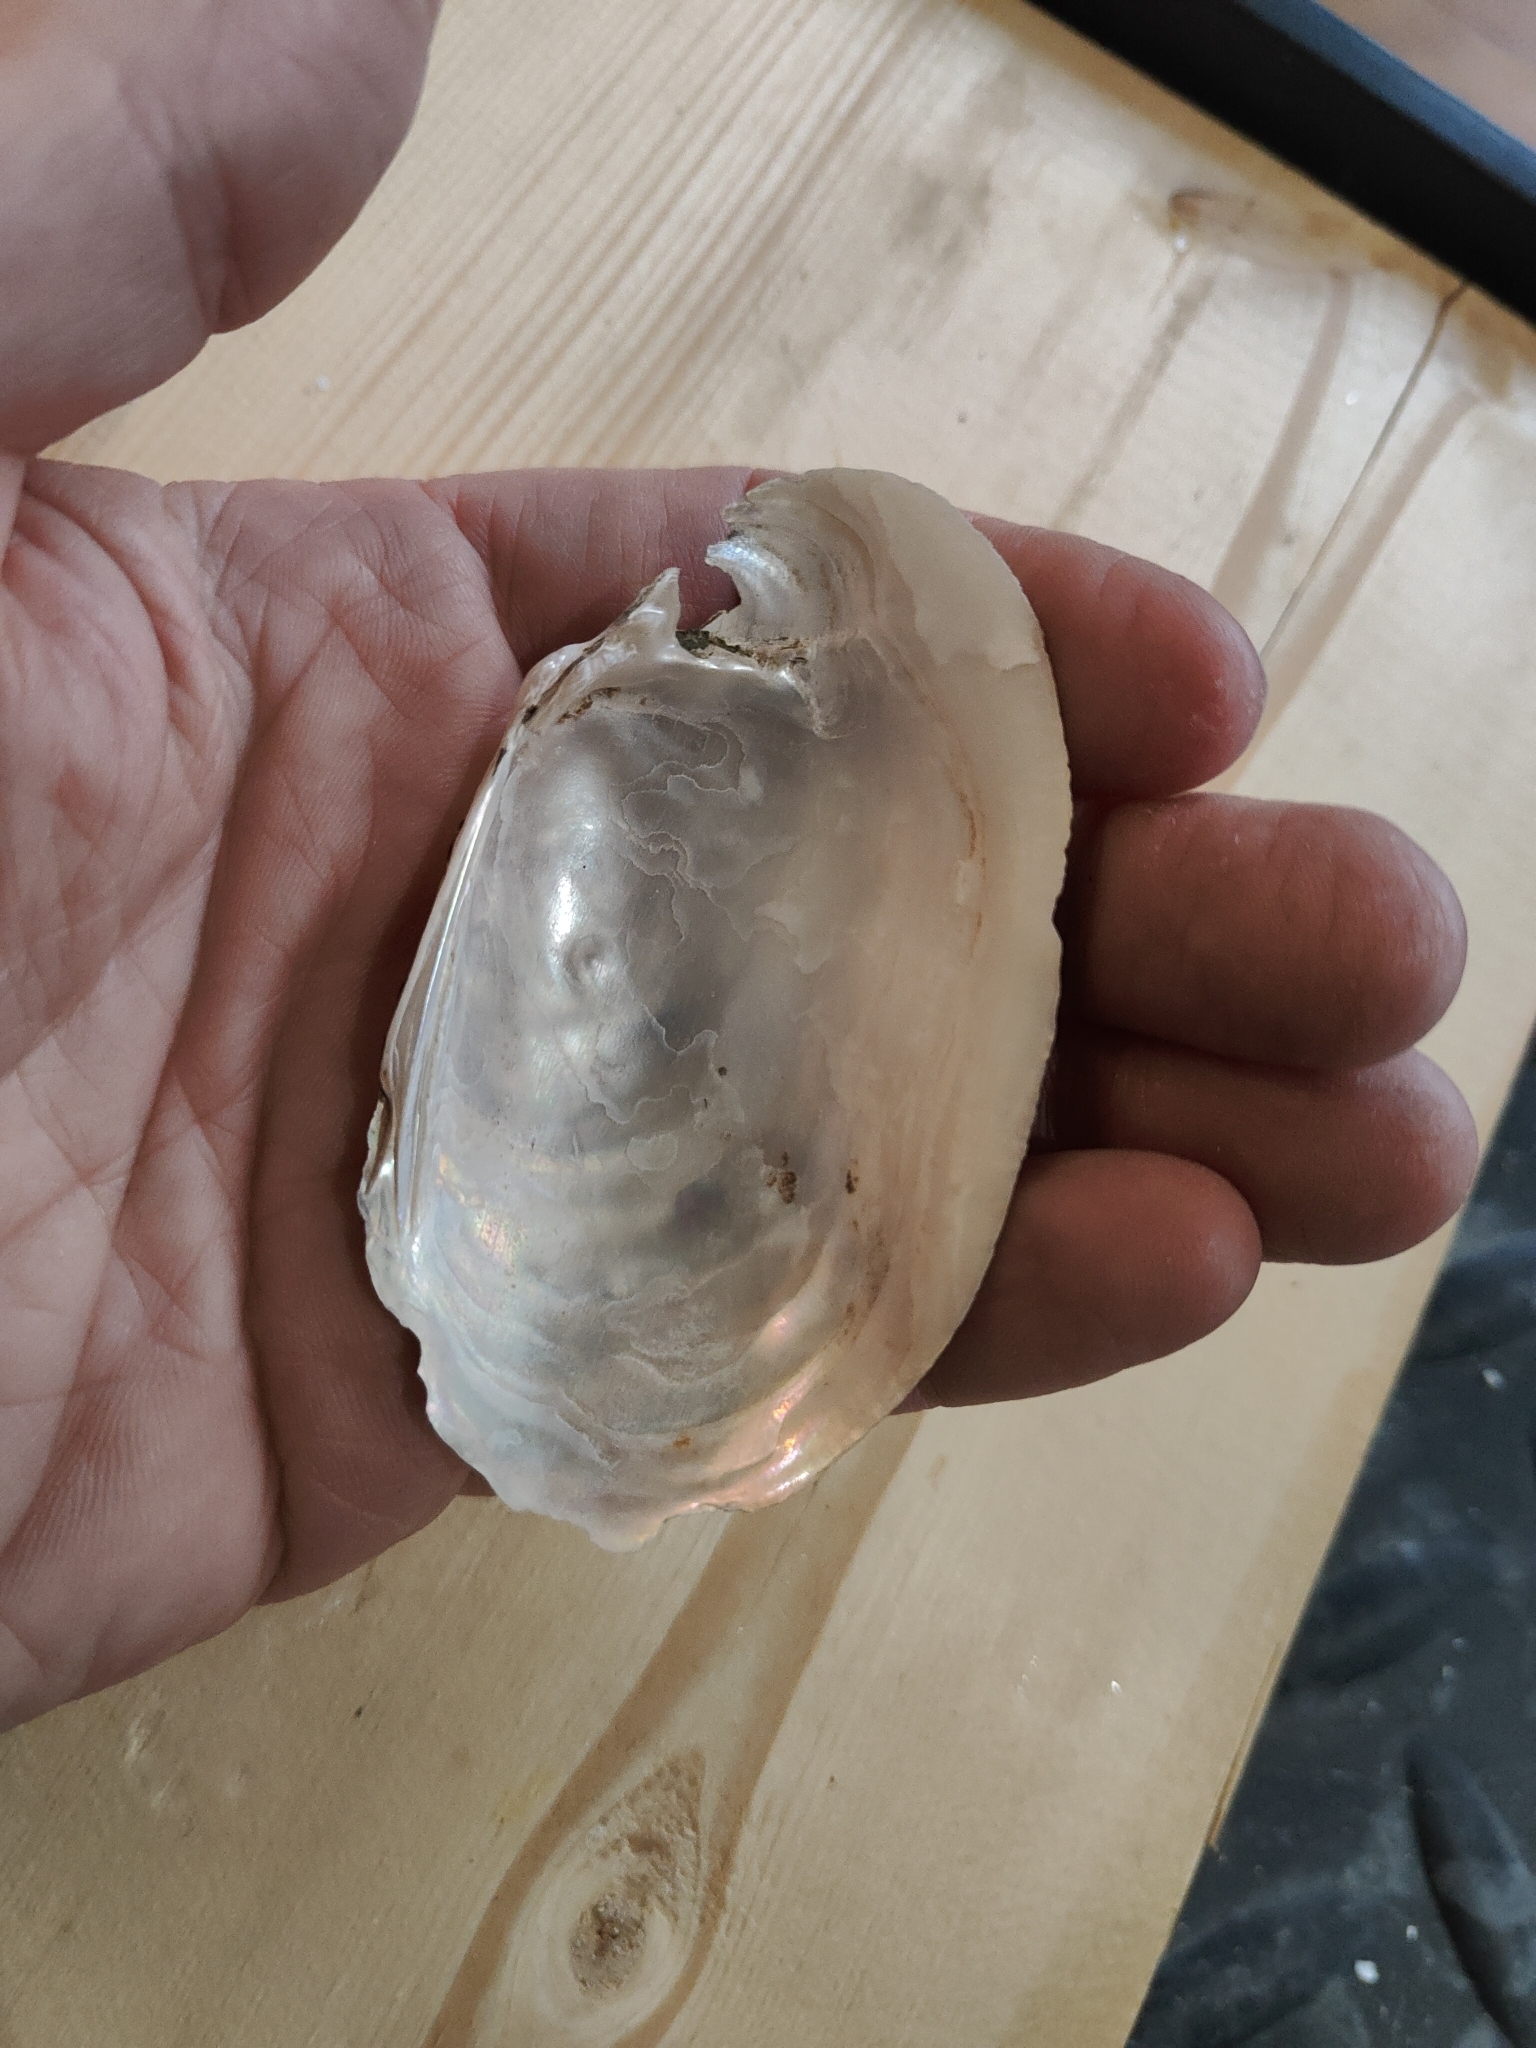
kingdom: Animalia
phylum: Mollusca
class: Bivalvia
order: Unionida
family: Unionidae
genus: Lampsilis
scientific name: Lampsilis siliquoidea
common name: Fatmucket
